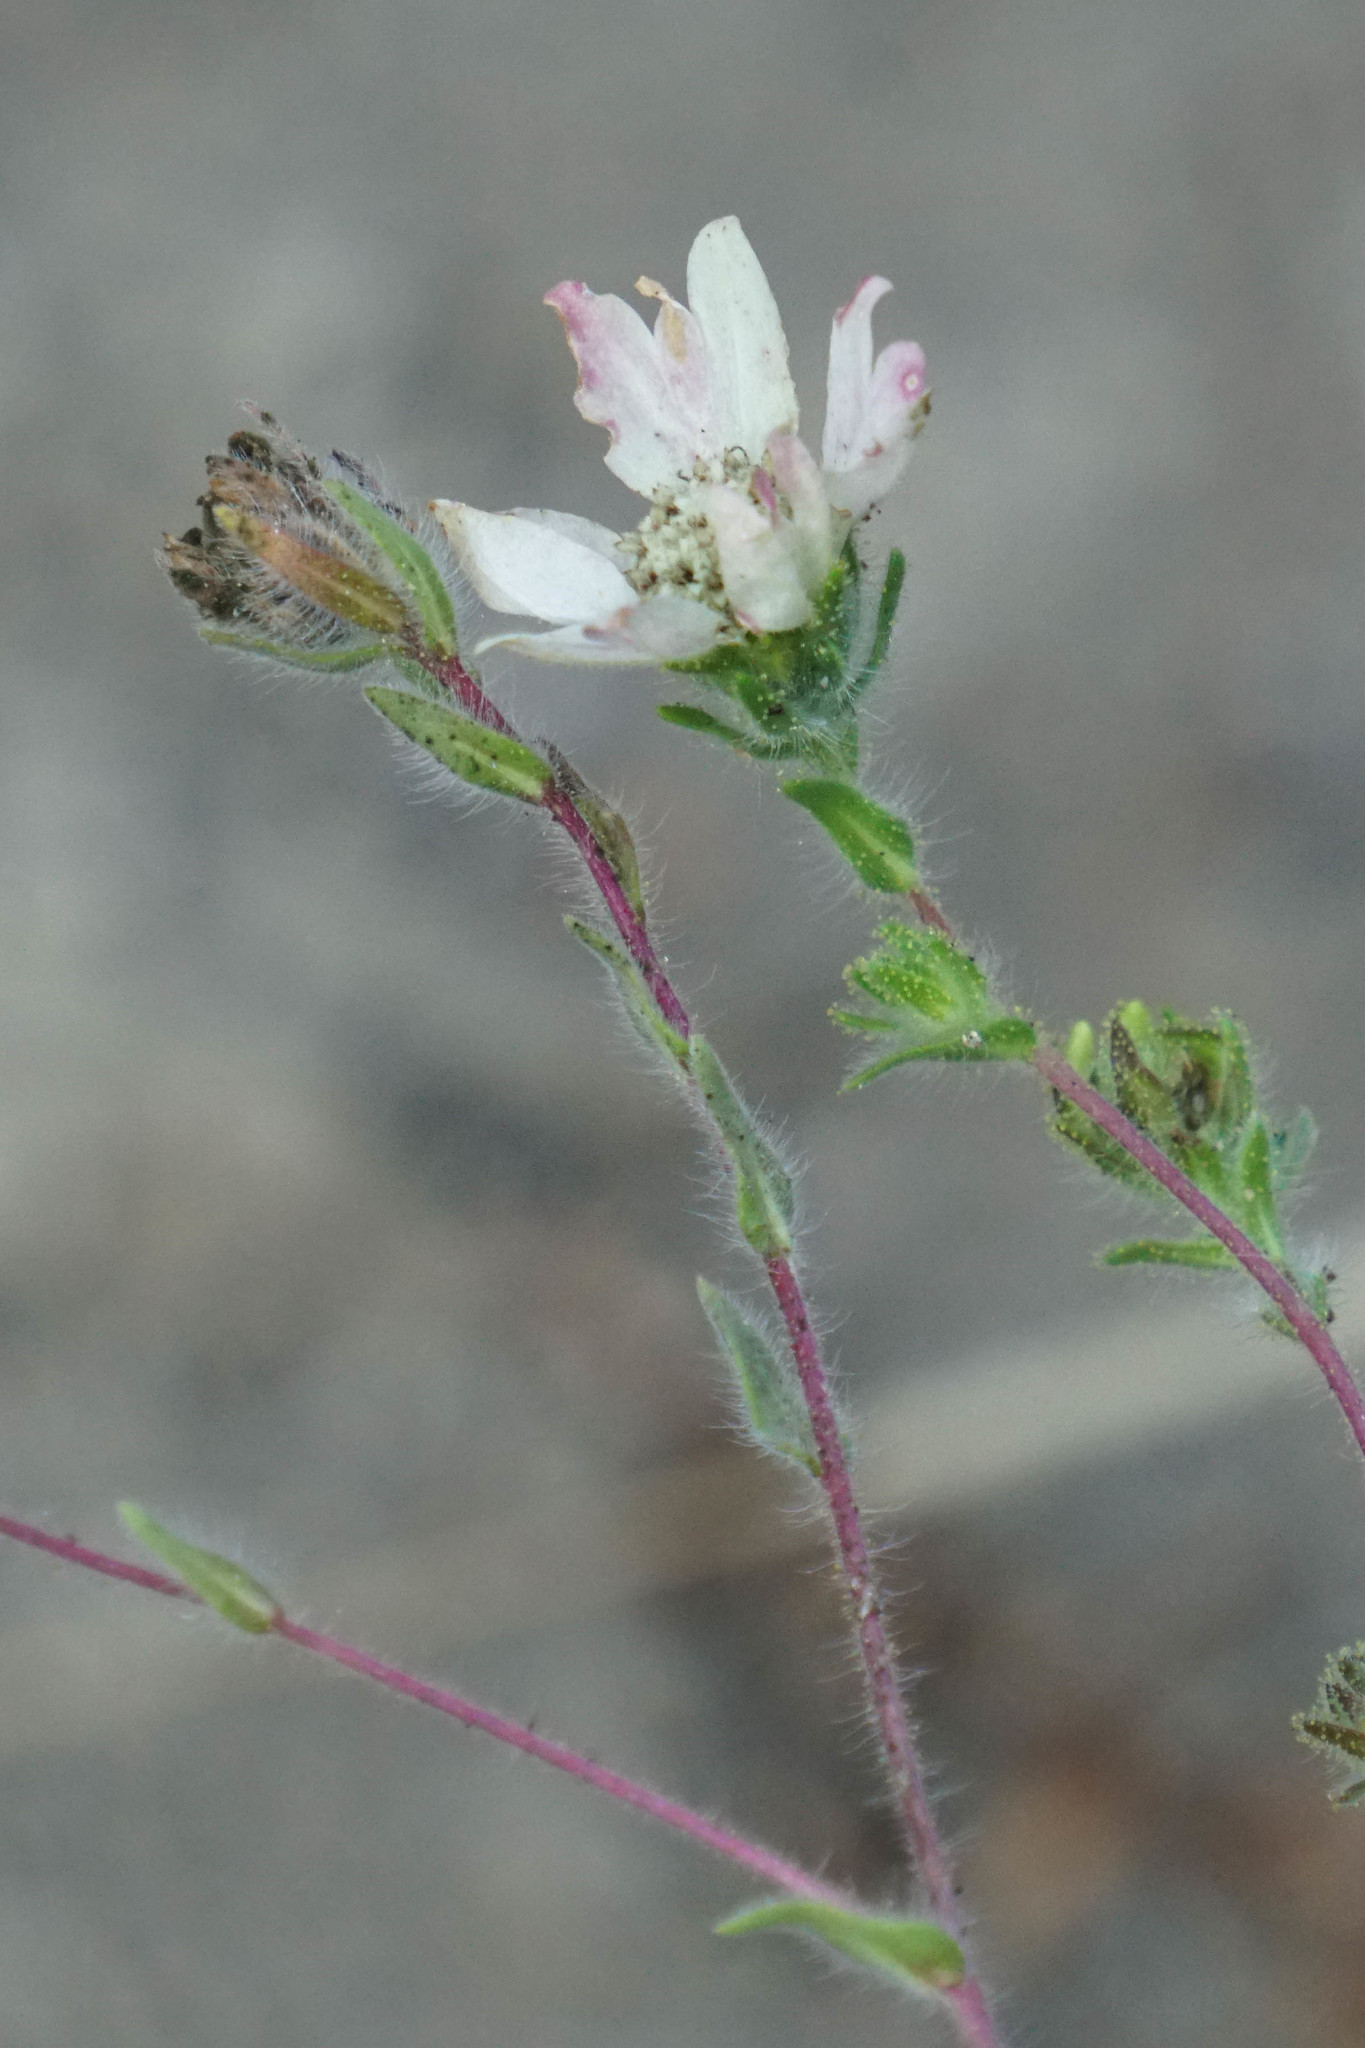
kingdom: Plantae
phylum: Tracheophyta
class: Magnoliopsida
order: Asterales
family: Asteraceae
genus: Hemizonia
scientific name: Hemizonia congesta
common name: Hayfield tarweed
